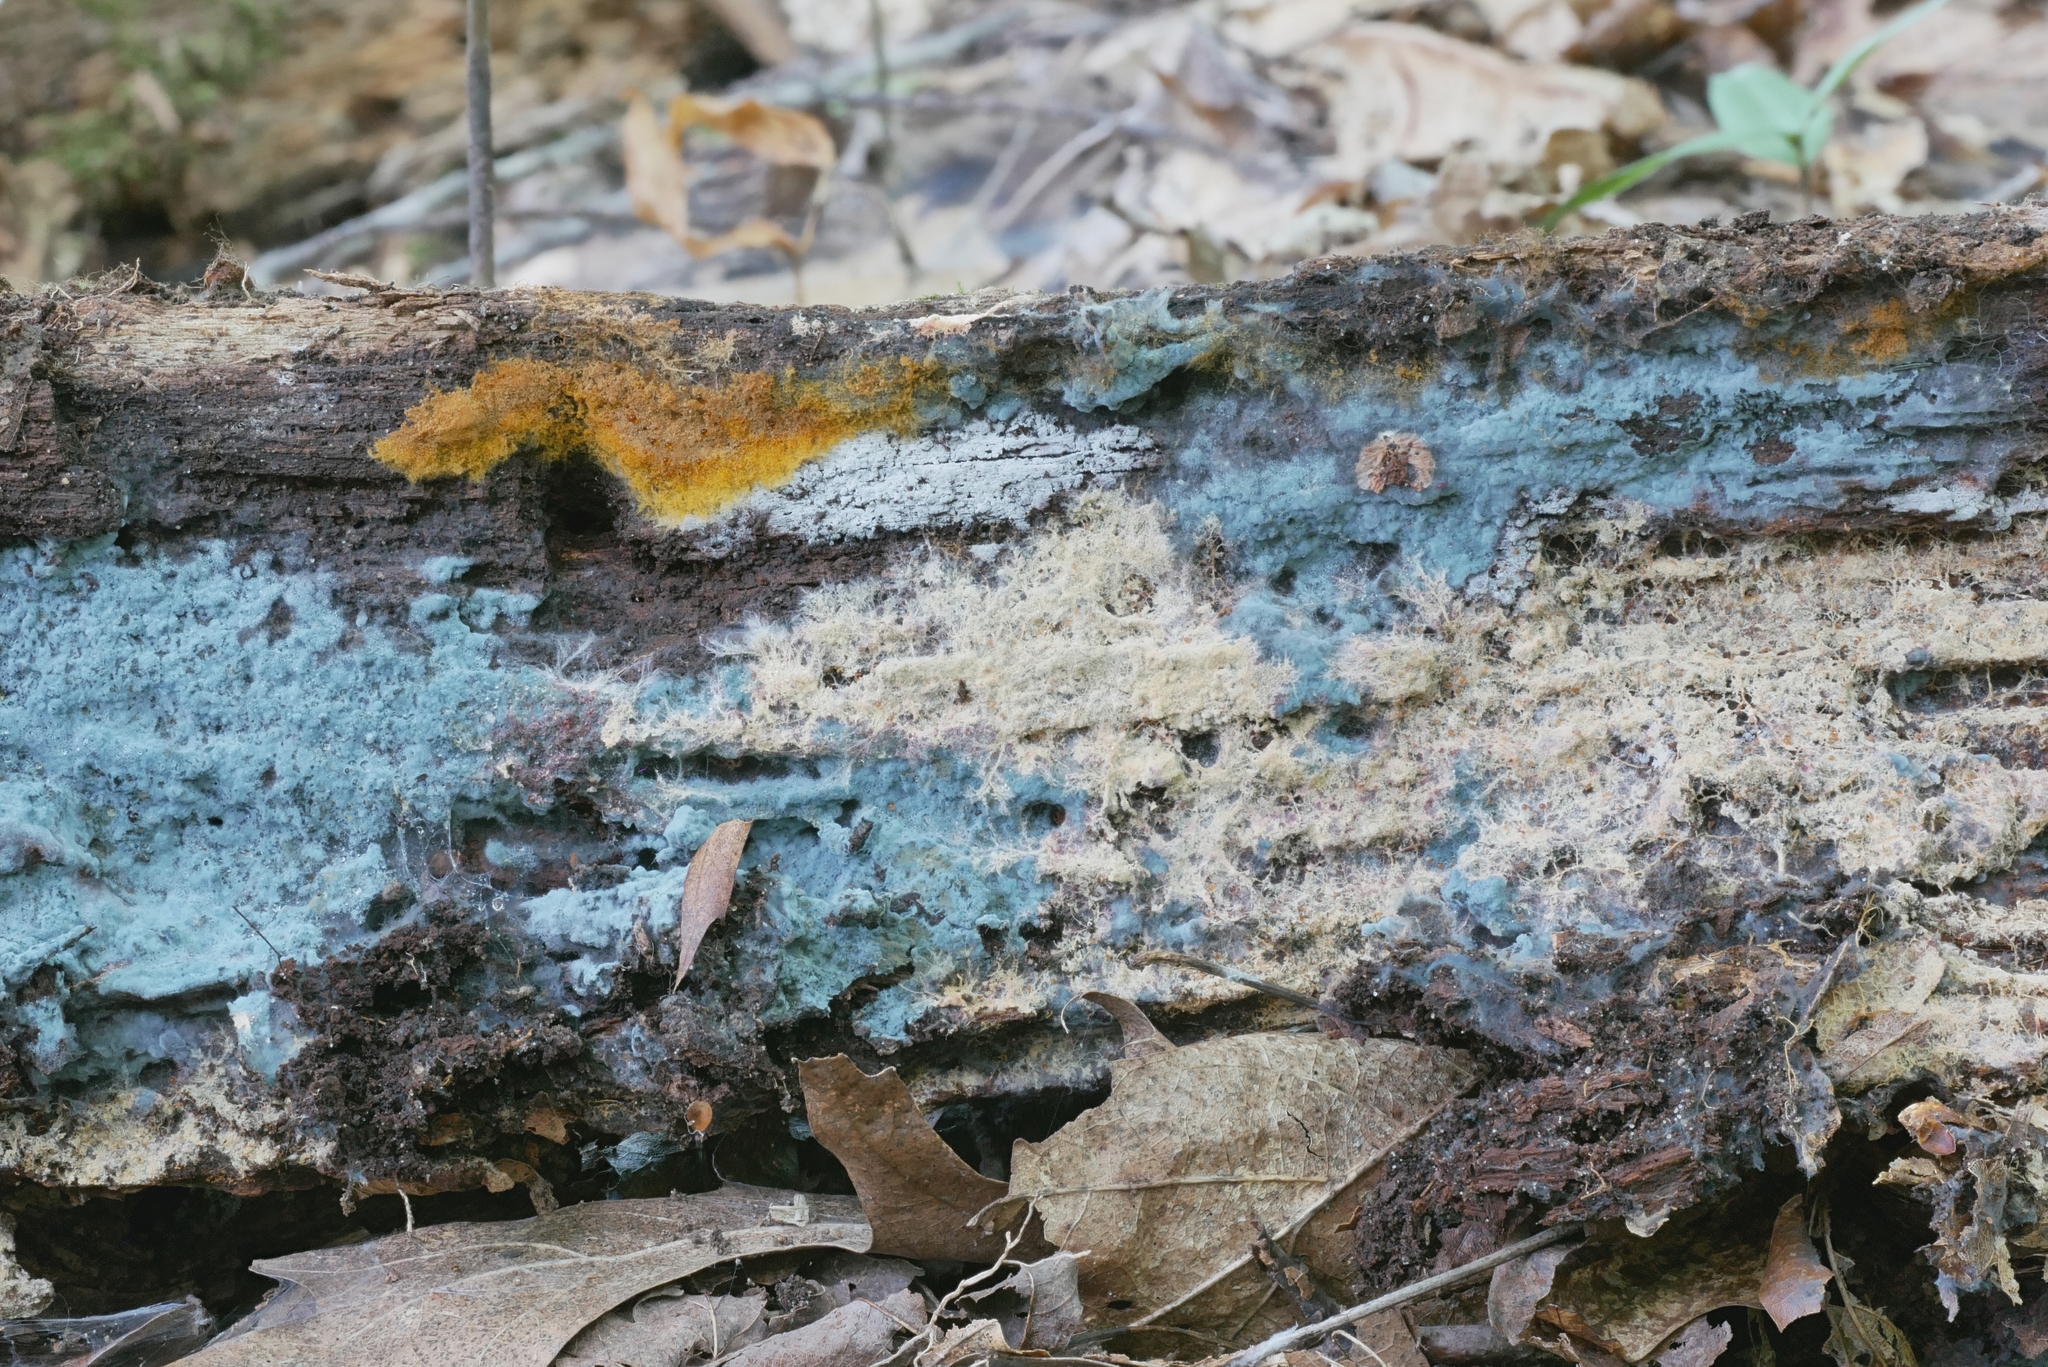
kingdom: Fungi
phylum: Basidiomycota
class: Agaricomycetes
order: Atheliales
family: Atheliaceae
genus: Byssocorticium
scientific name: Byssocorticium atrovirens
